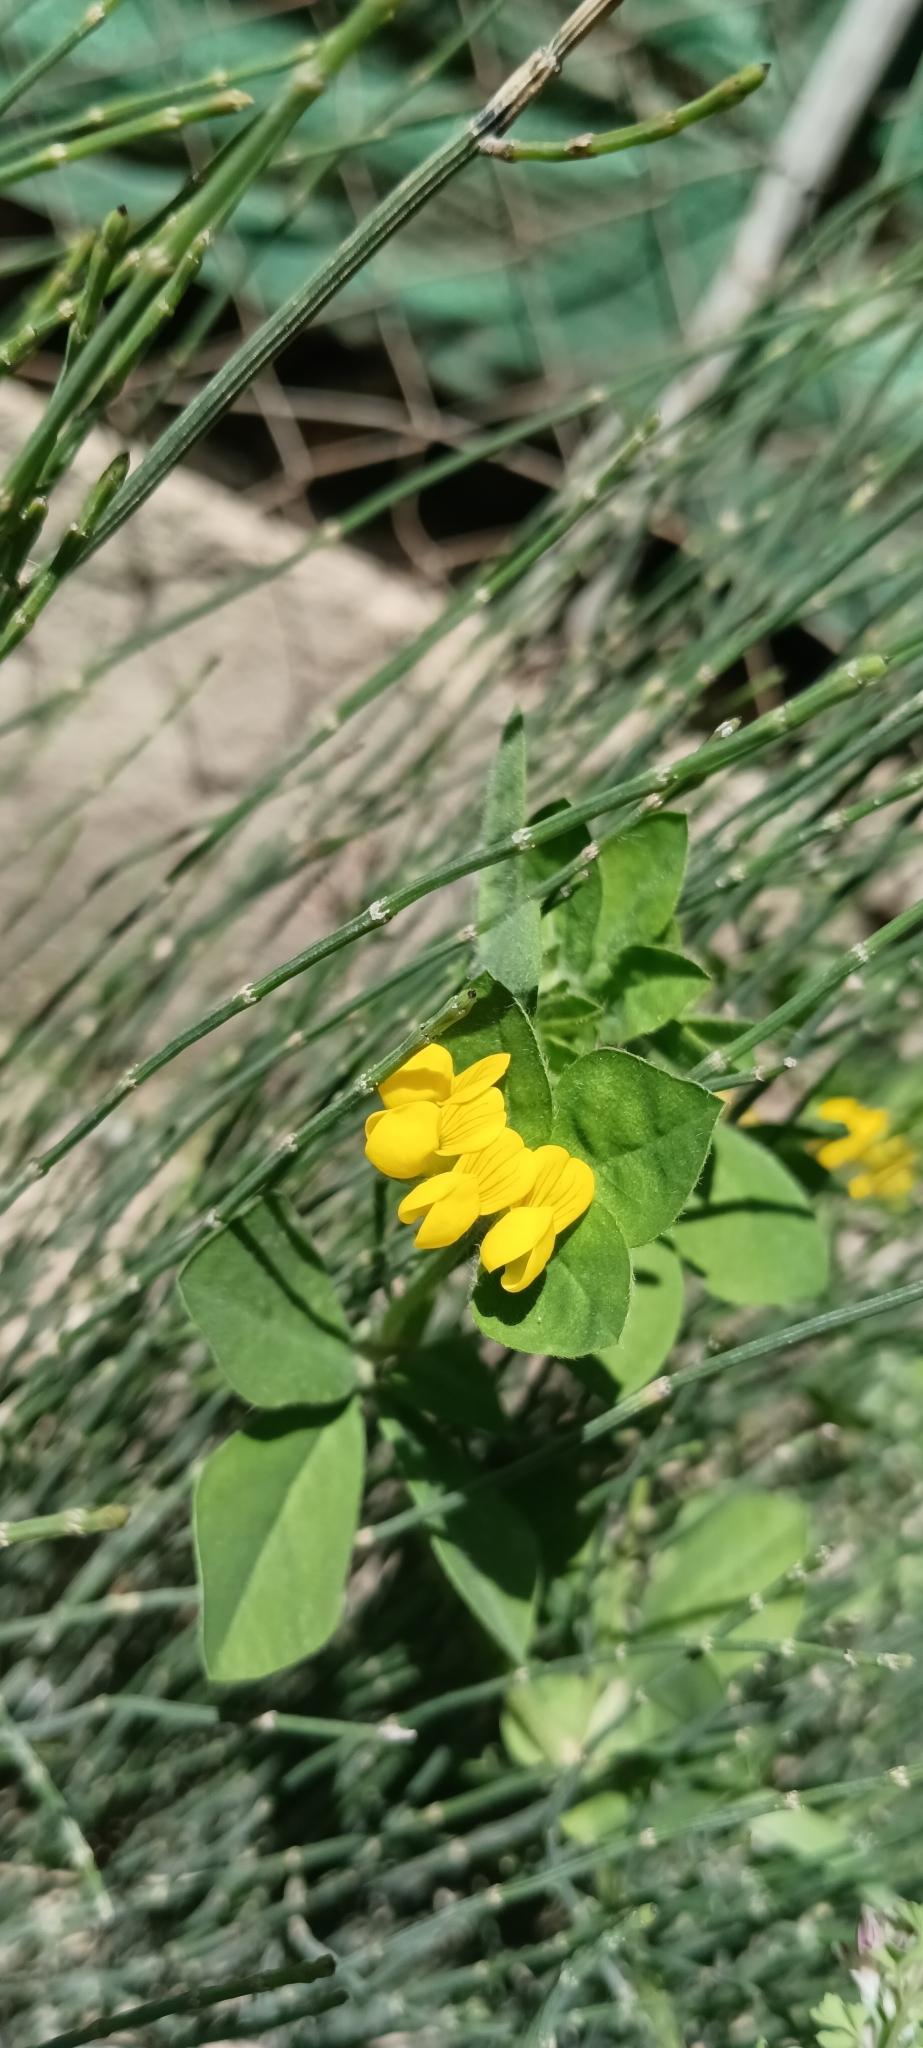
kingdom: Plantae
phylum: Tracheophyta
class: Magnoliopsida
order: Fabales
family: Fabaceae
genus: Lotus
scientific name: Lotus ornithopodioides
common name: Southern bird's-foot trefoil
